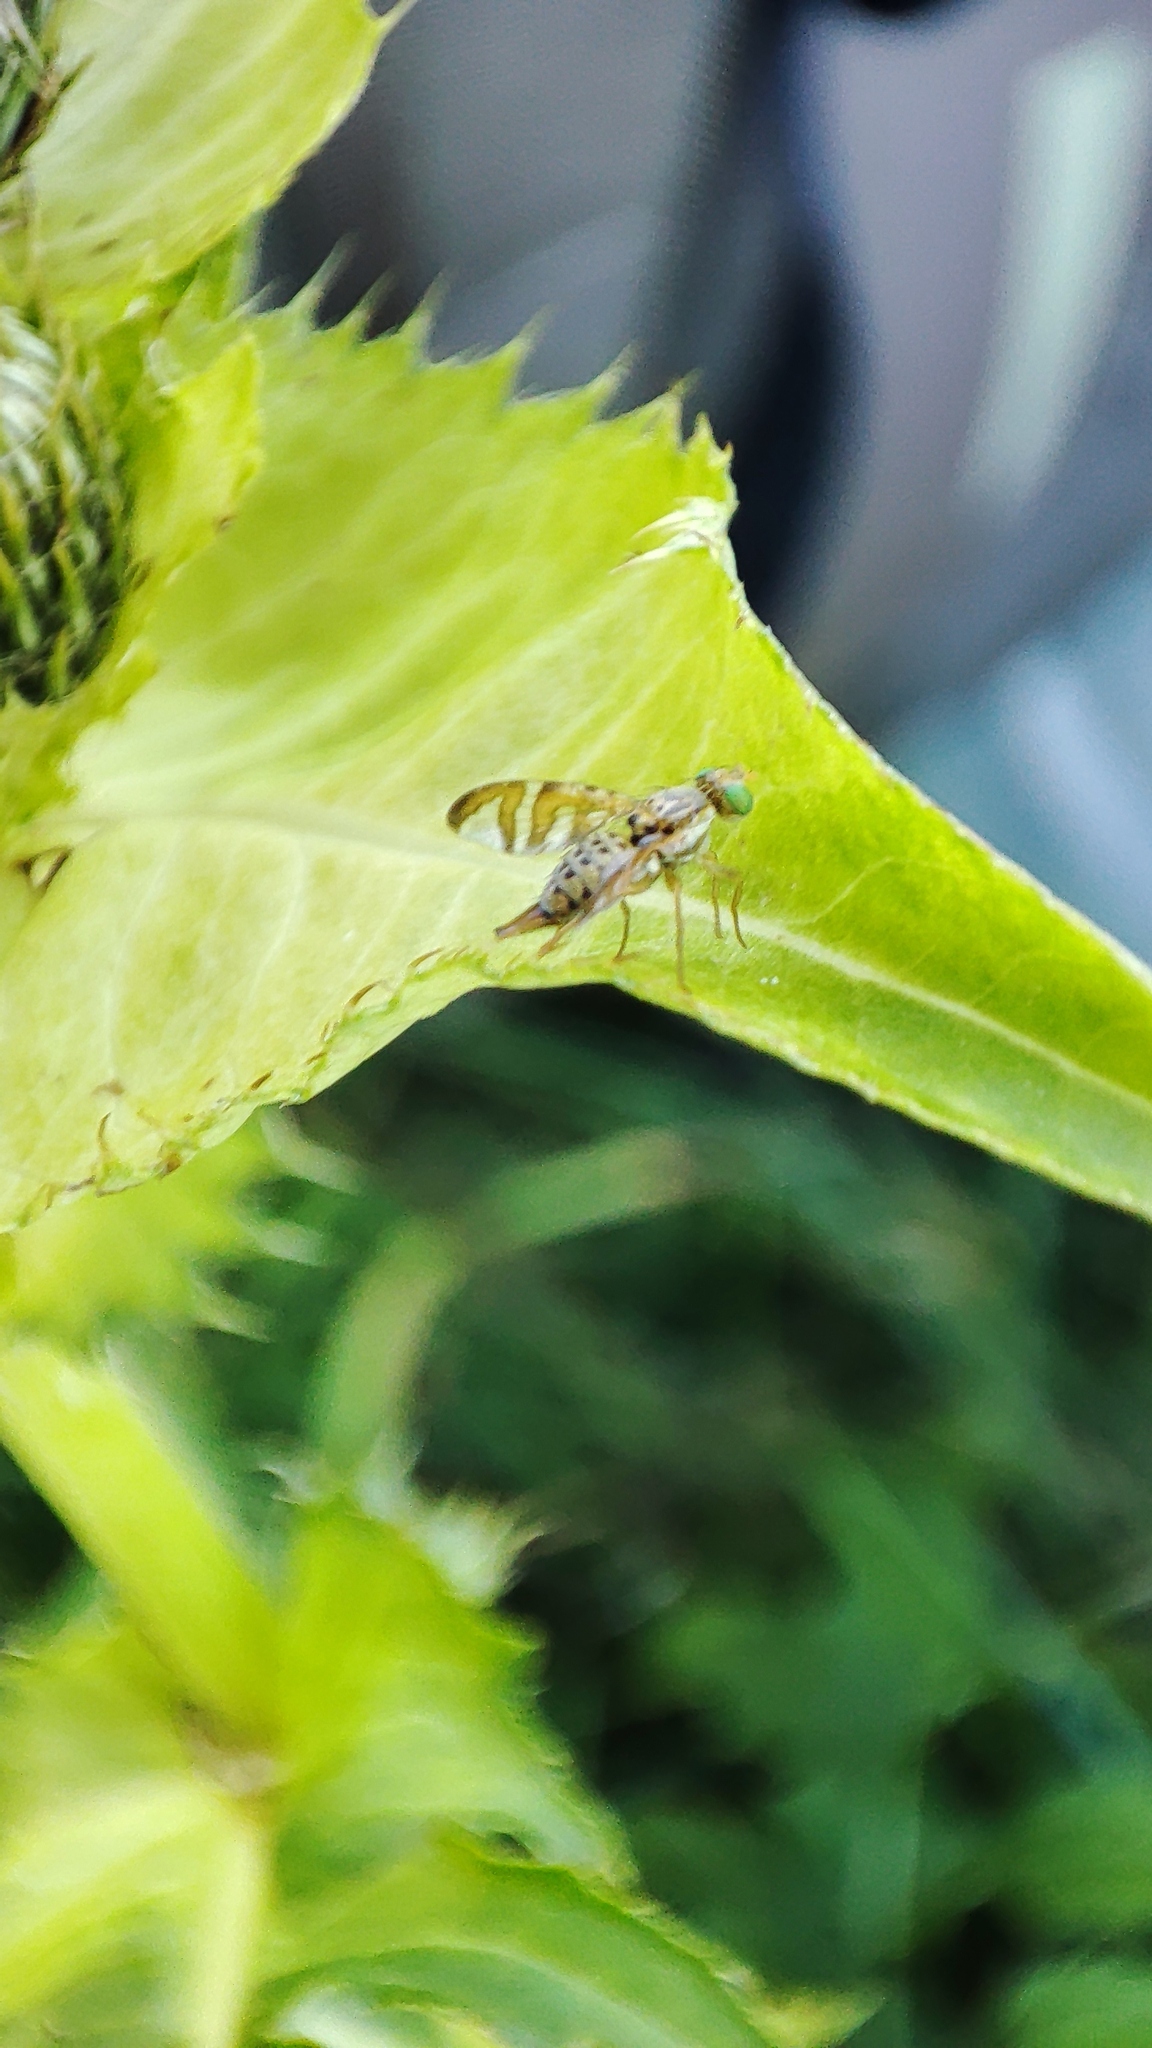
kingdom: Animalia
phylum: Arthropoda
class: Insecta
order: Diptera
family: Tephritidae
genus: Chaetostomella
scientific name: Chaetostomella cylindrica
